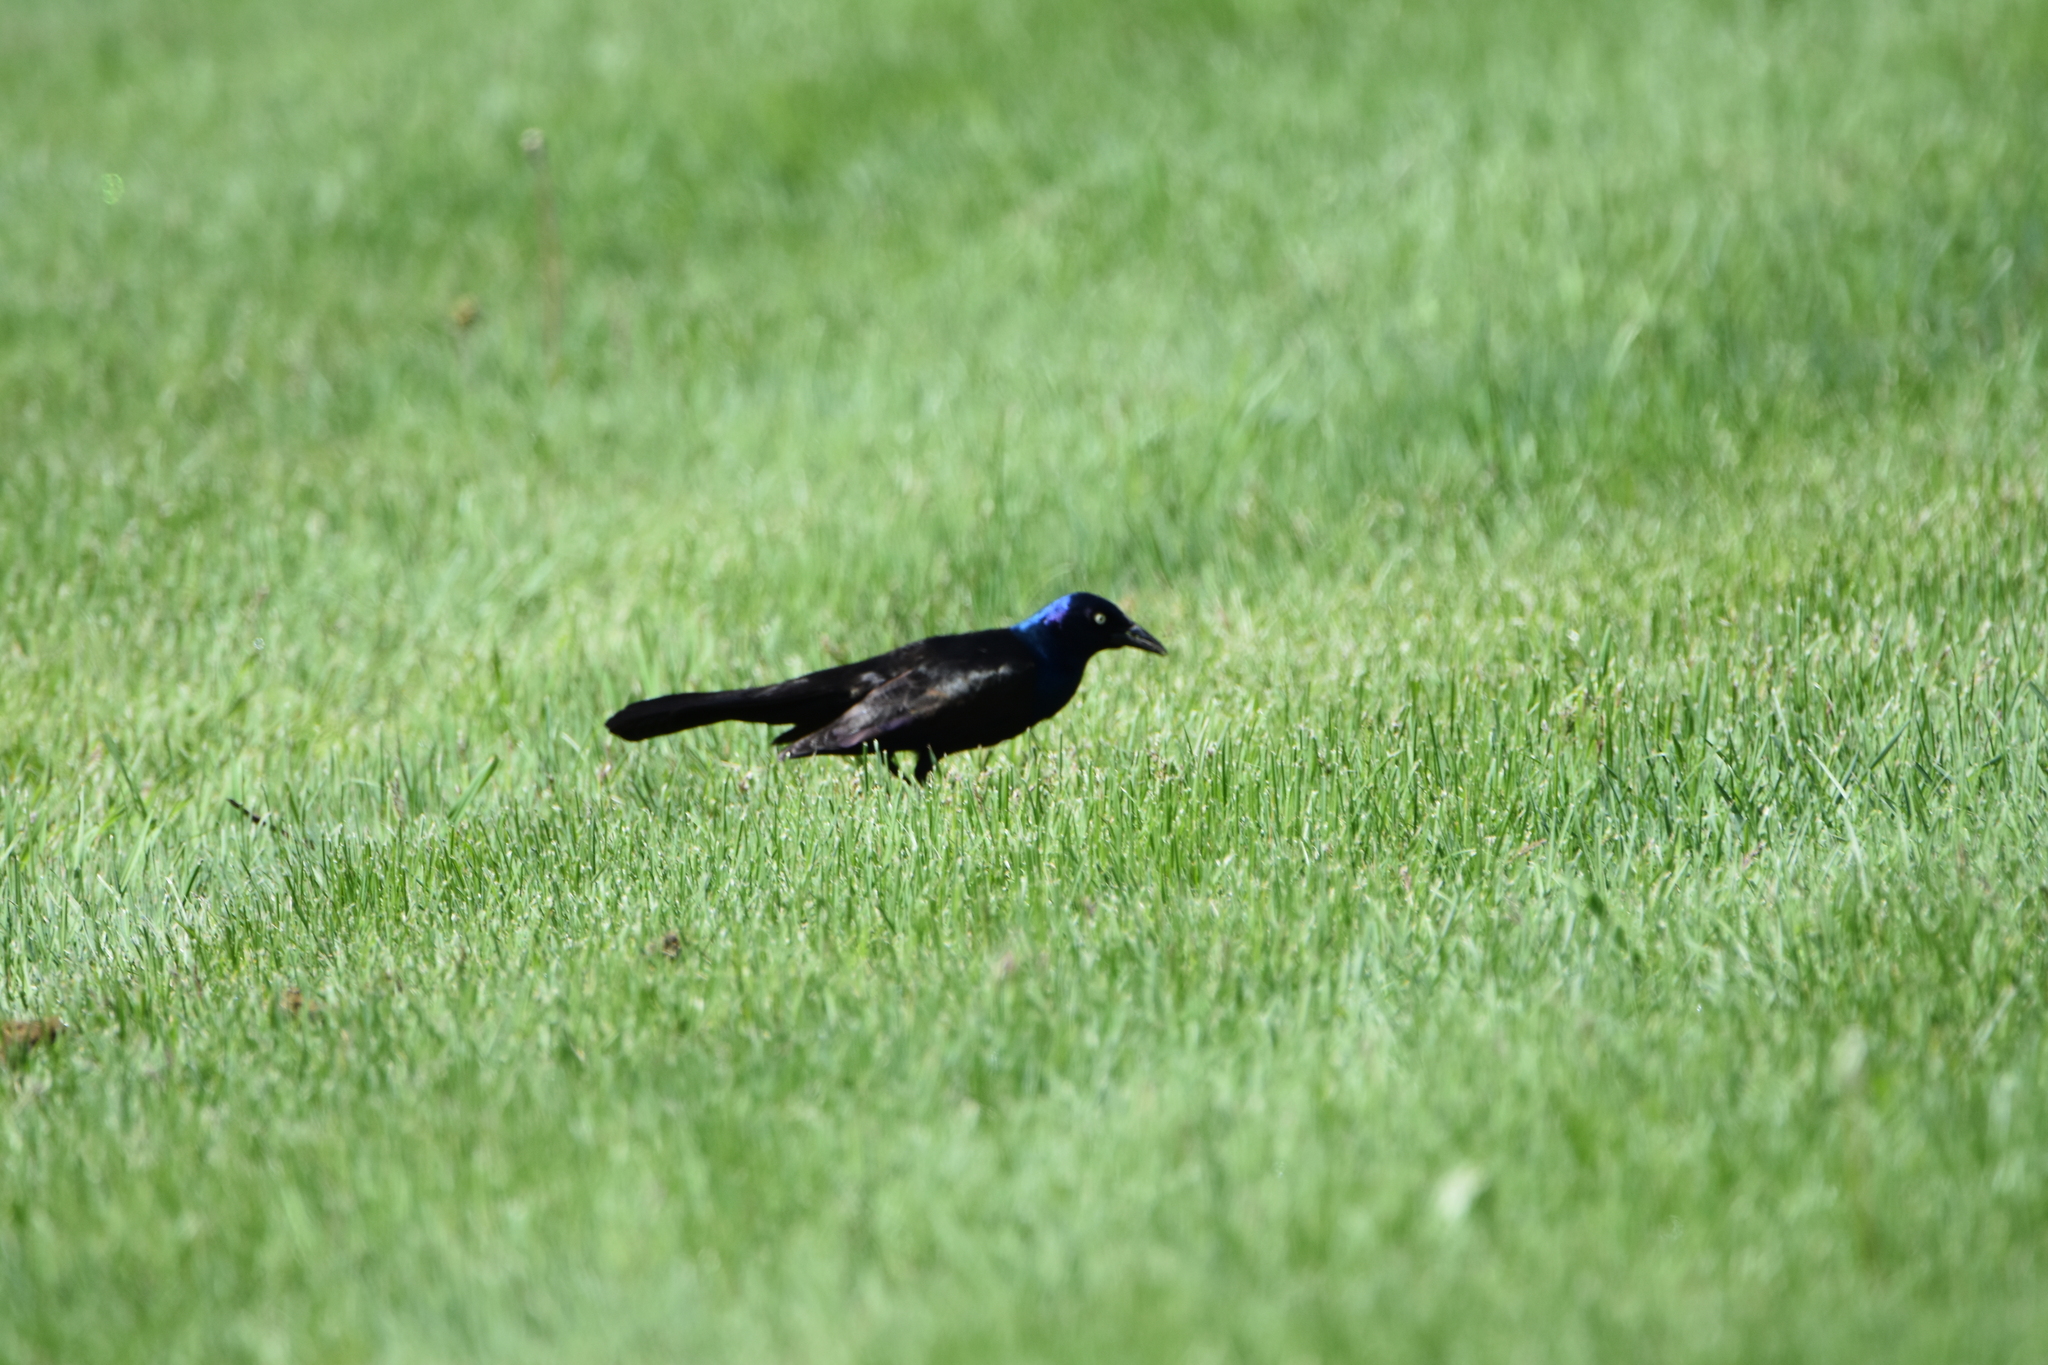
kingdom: Animalia
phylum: Chordata
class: Aves
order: Passeriformes
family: Icteridae
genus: Quiscalus
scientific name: Quiscalus quiscula
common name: Common grackle
